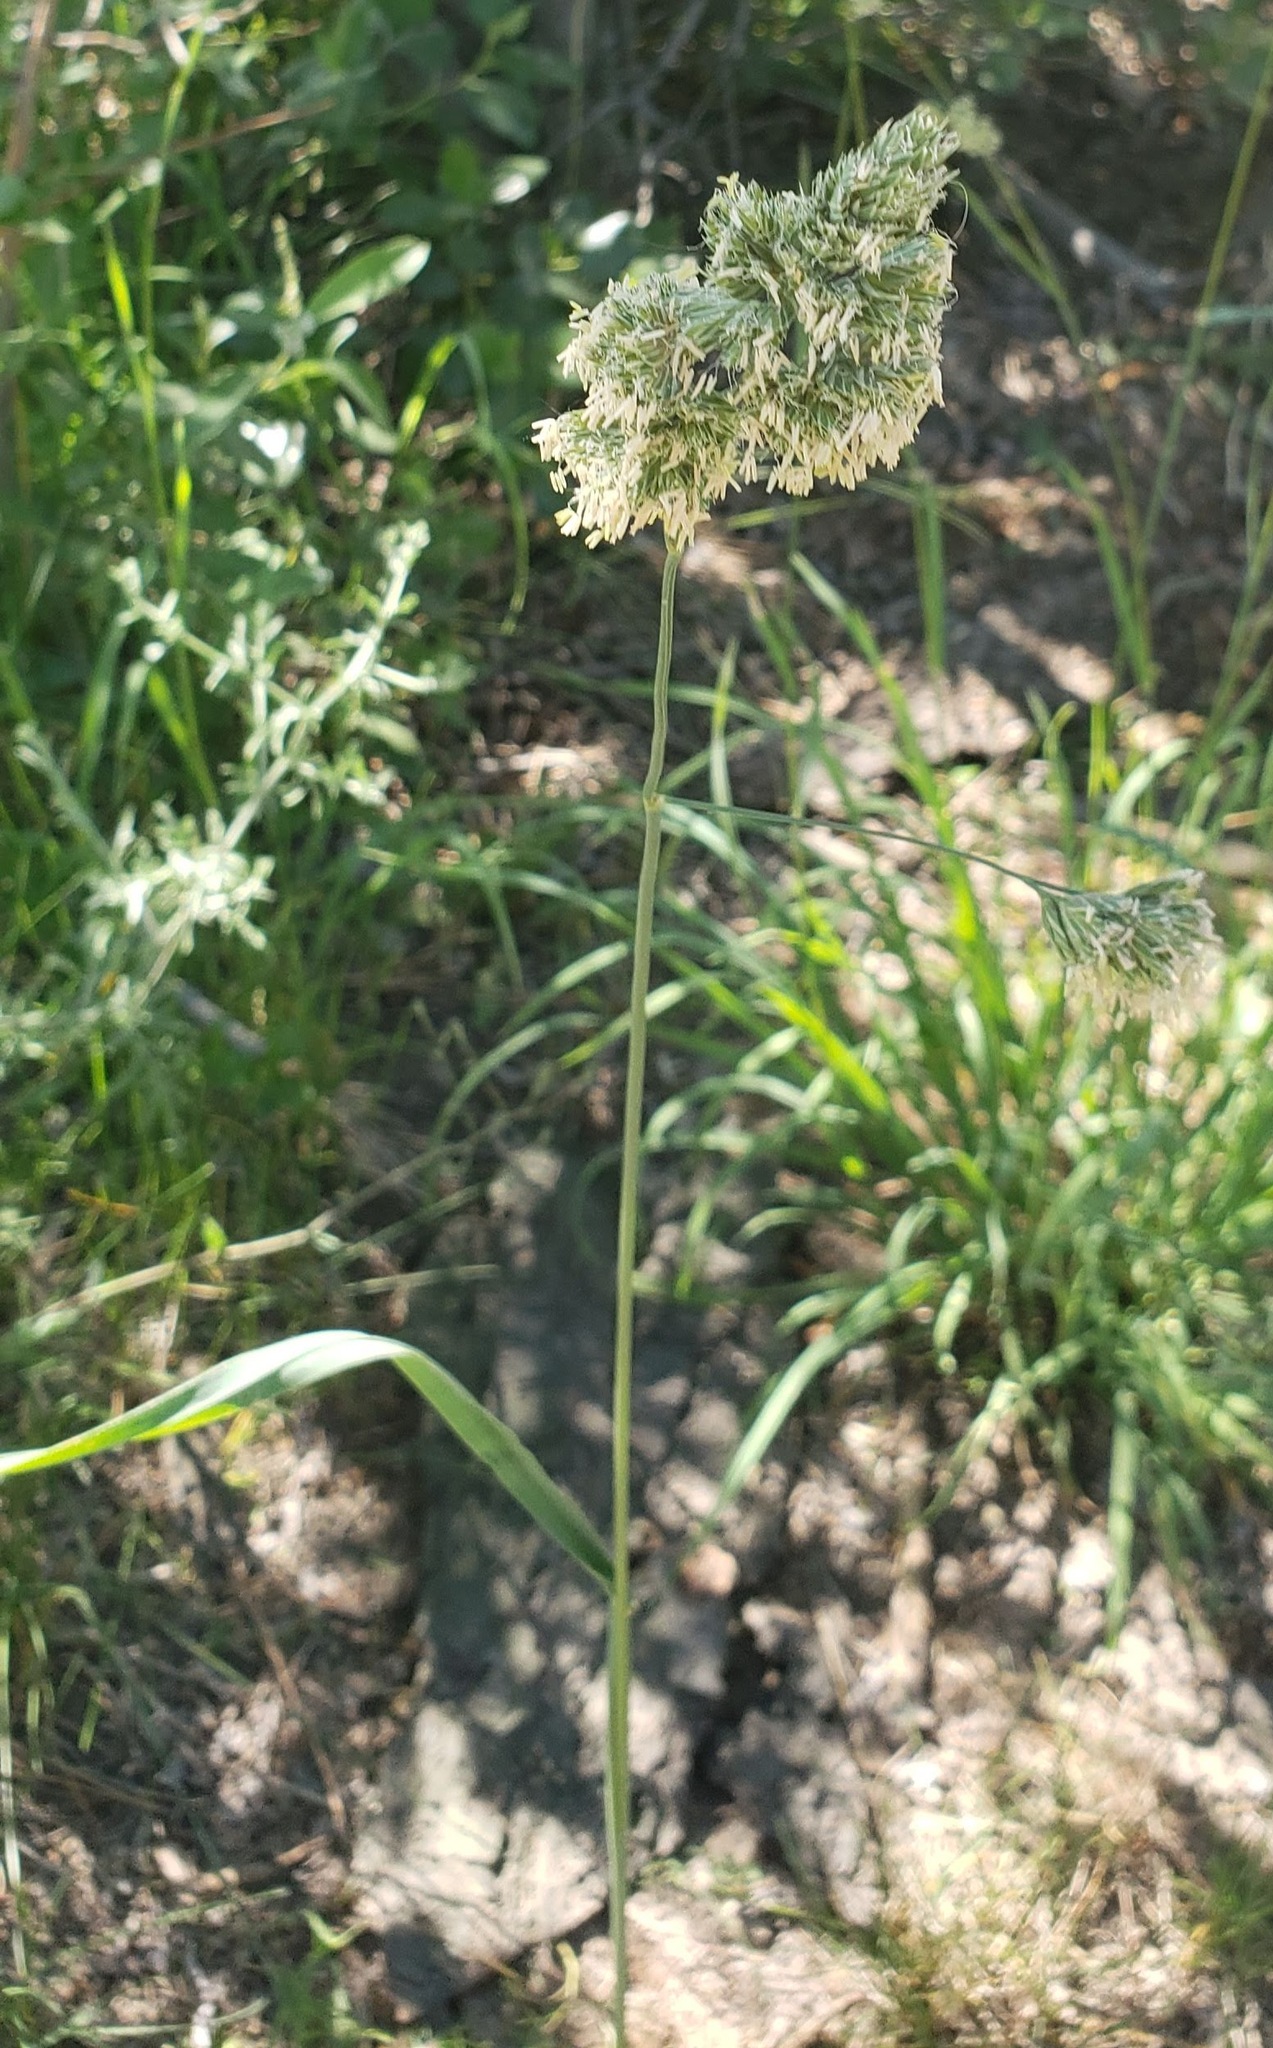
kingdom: Plantae
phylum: Tracheophyta
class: Liliopsida
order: Poales
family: Poaceae
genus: Dactylis
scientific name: Dactylis glomerata
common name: Orchardgrass
